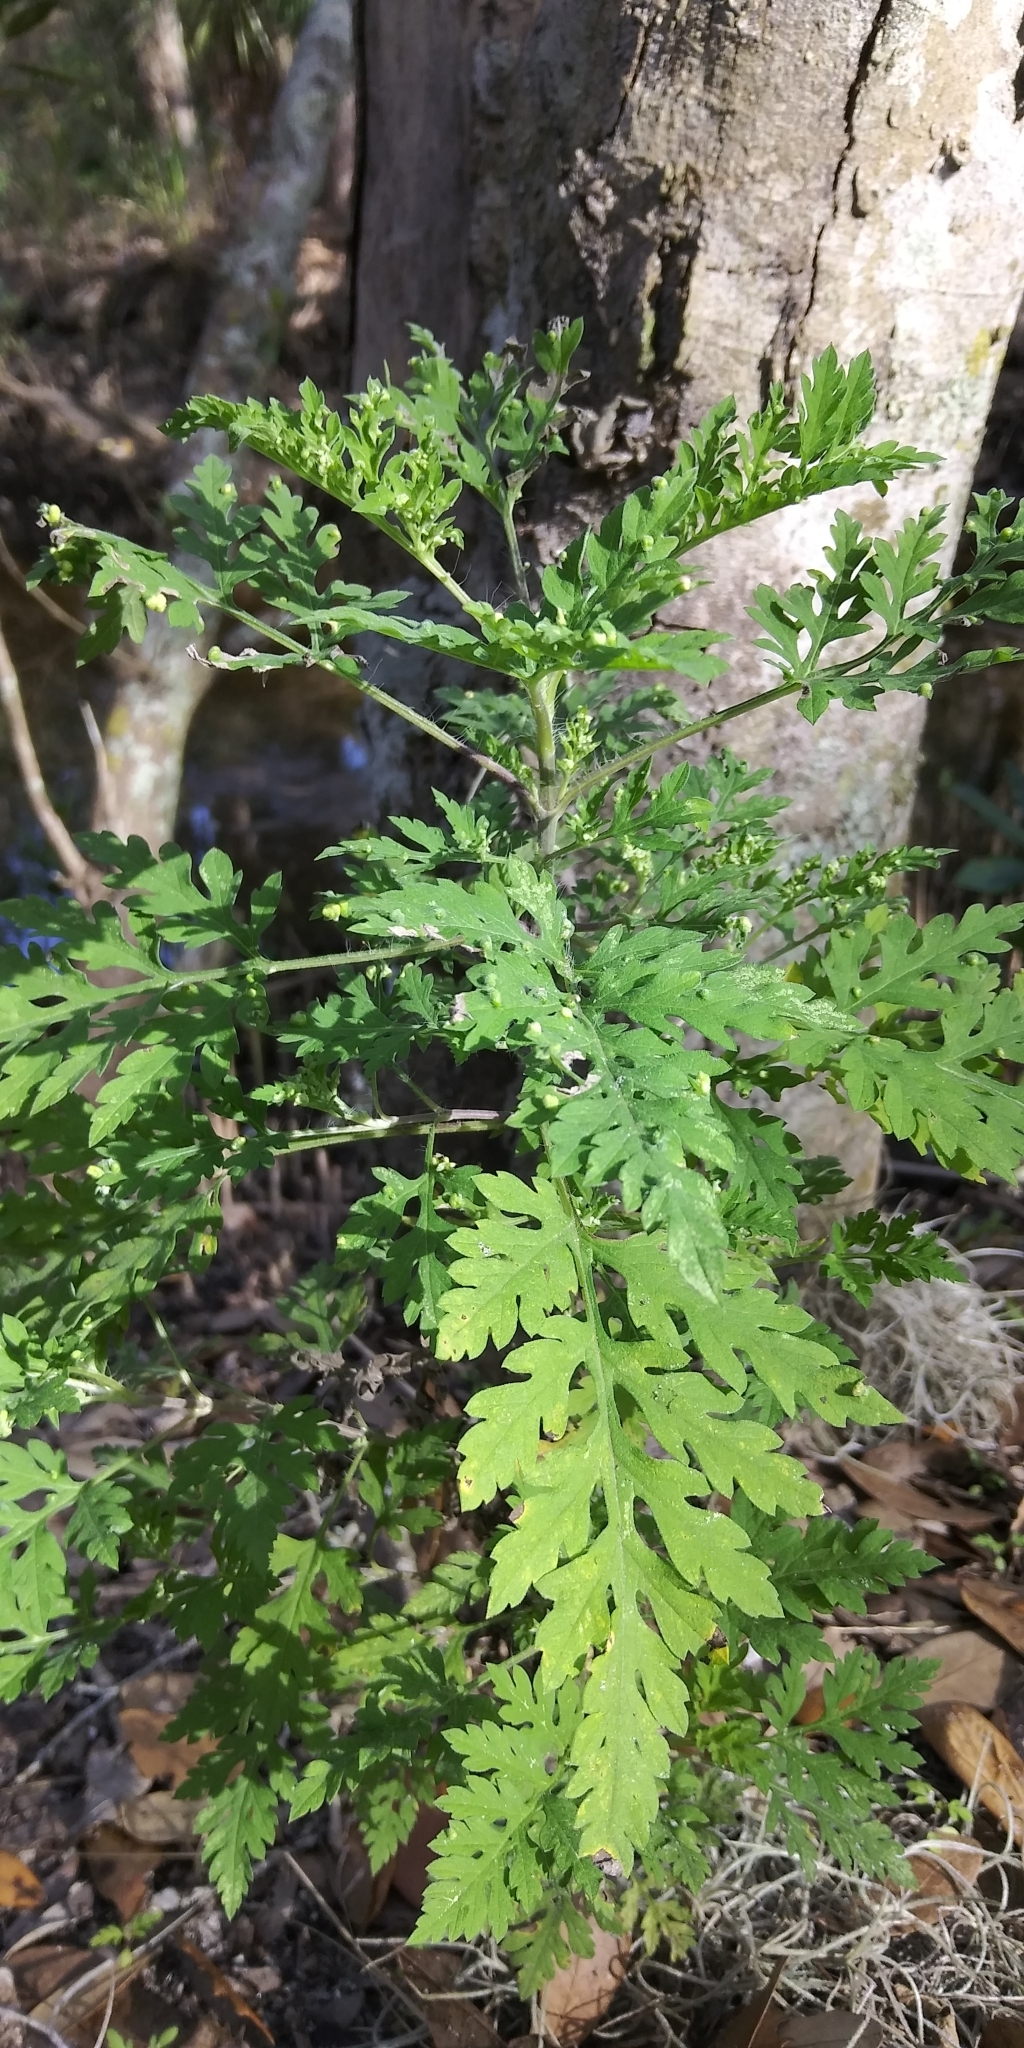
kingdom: Plantae
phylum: Tracheophyta
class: Magnoliopsida
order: Asterales
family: Asteraceae
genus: Ambrosia
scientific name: Ambrosia artemisiifolia
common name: Annual ragweed
